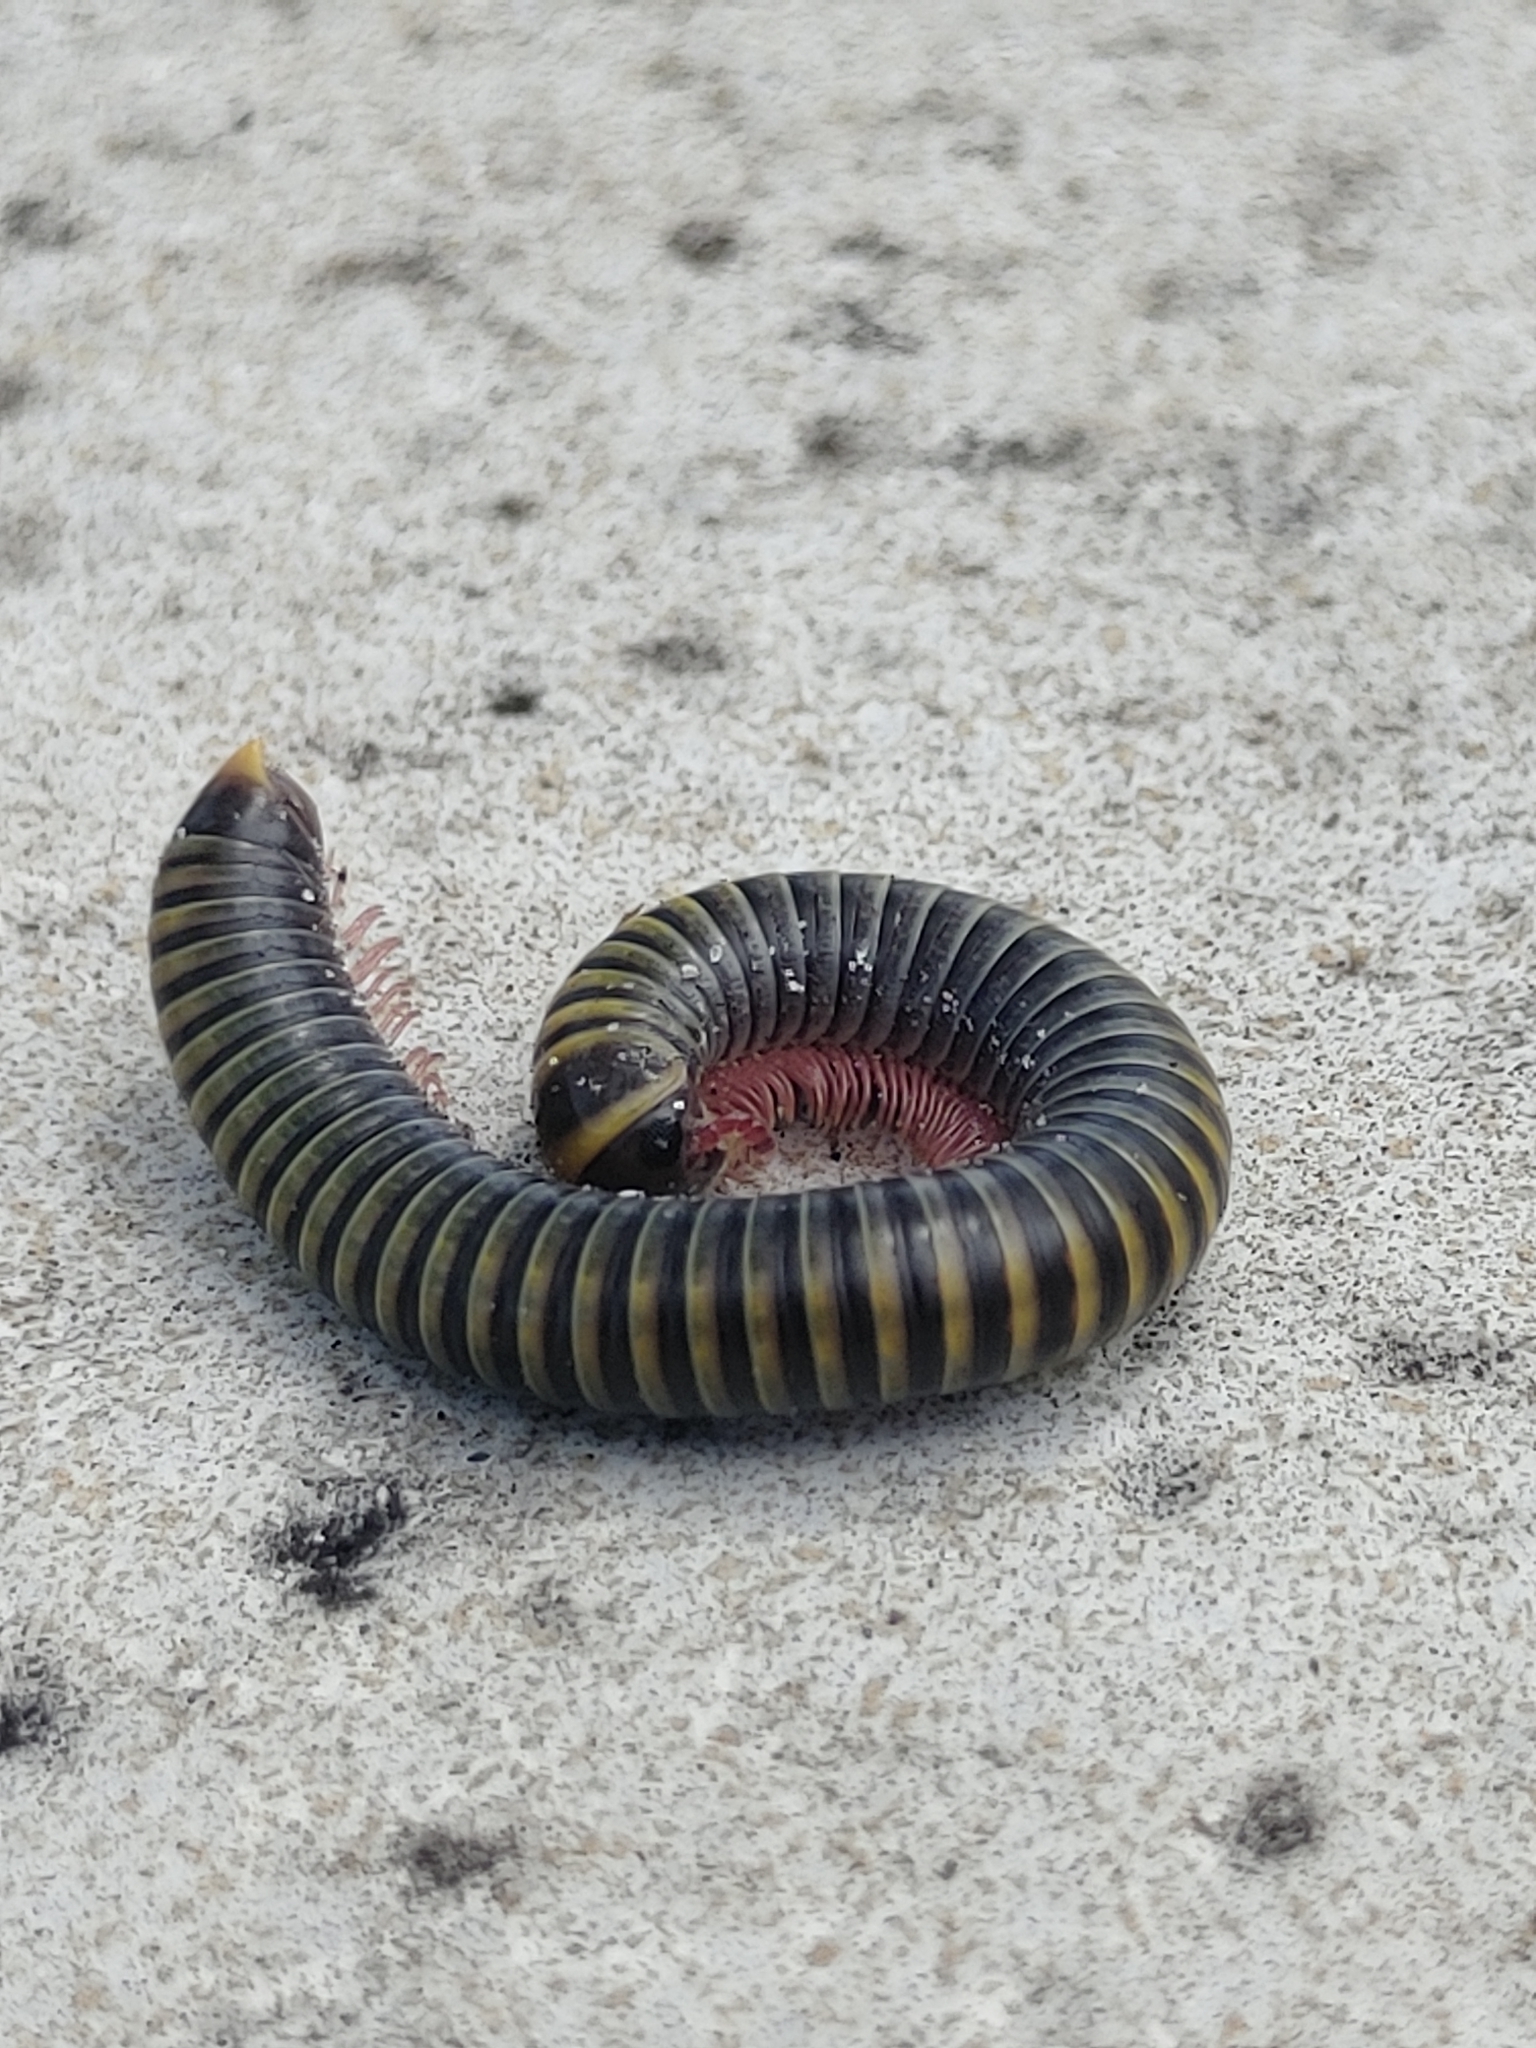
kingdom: Animalia
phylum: Arthropoda
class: Diplopoda
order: Spirobolida
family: Rhinocricidae
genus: Anadenobolus
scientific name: Anadenobolus monilicornis
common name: Caribbean millipede
